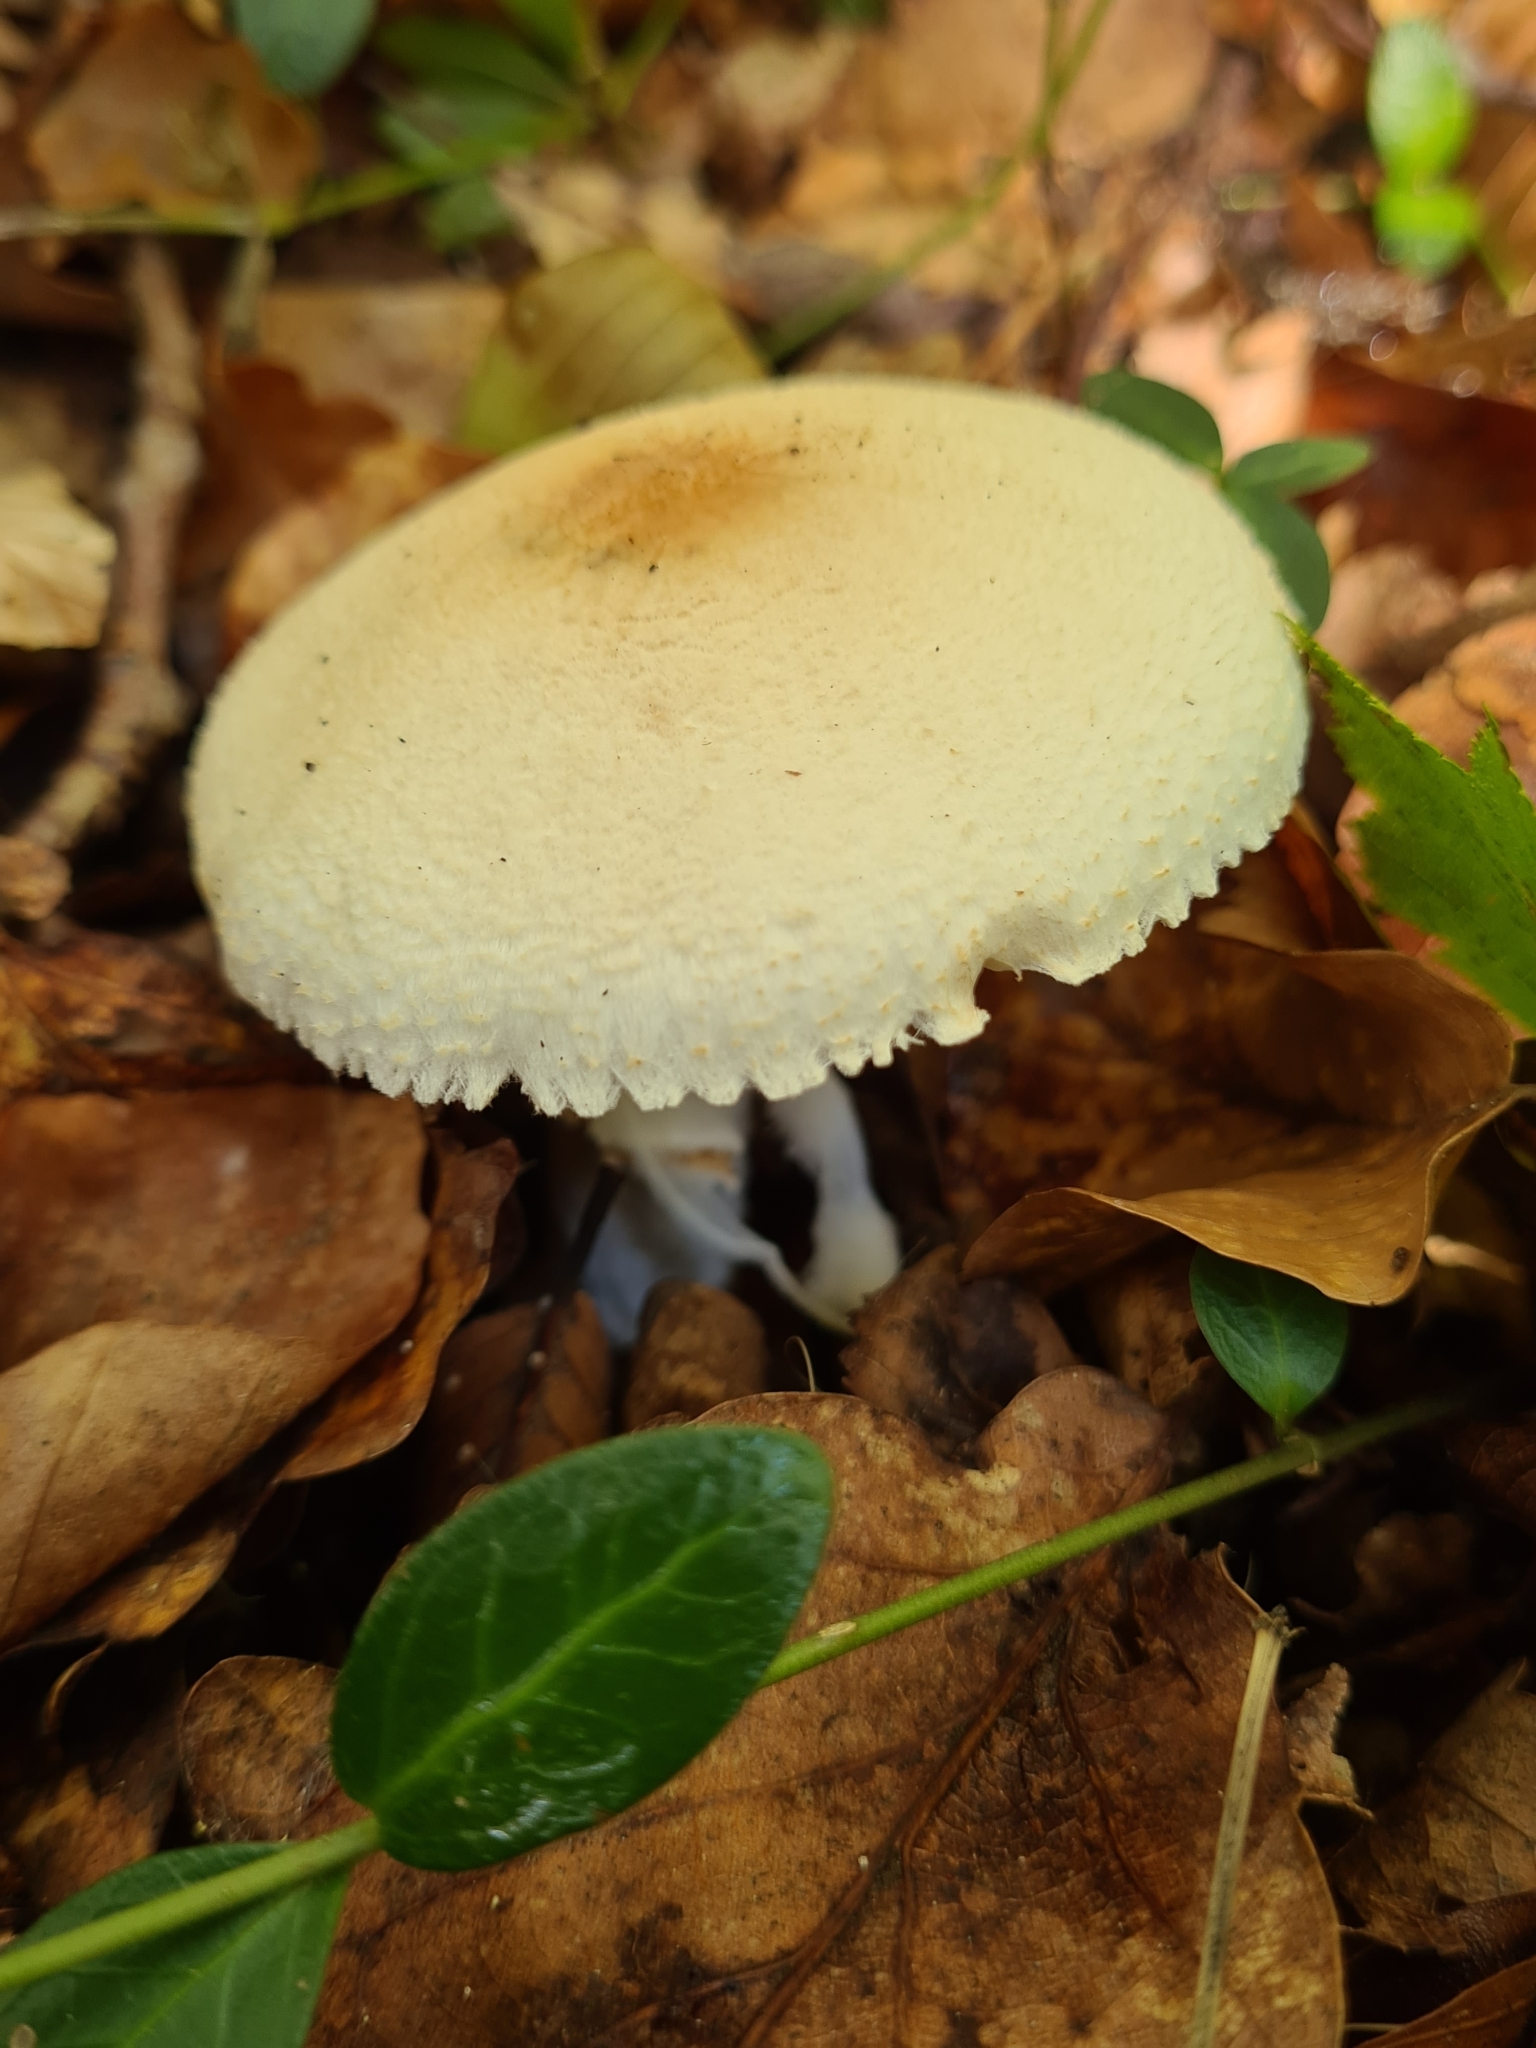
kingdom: Fungi
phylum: Basidiomycota
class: Agaricomycetes
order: Agaricales
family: Agaricaceae
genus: Lepiota
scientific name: Lepiota ignivolvata
